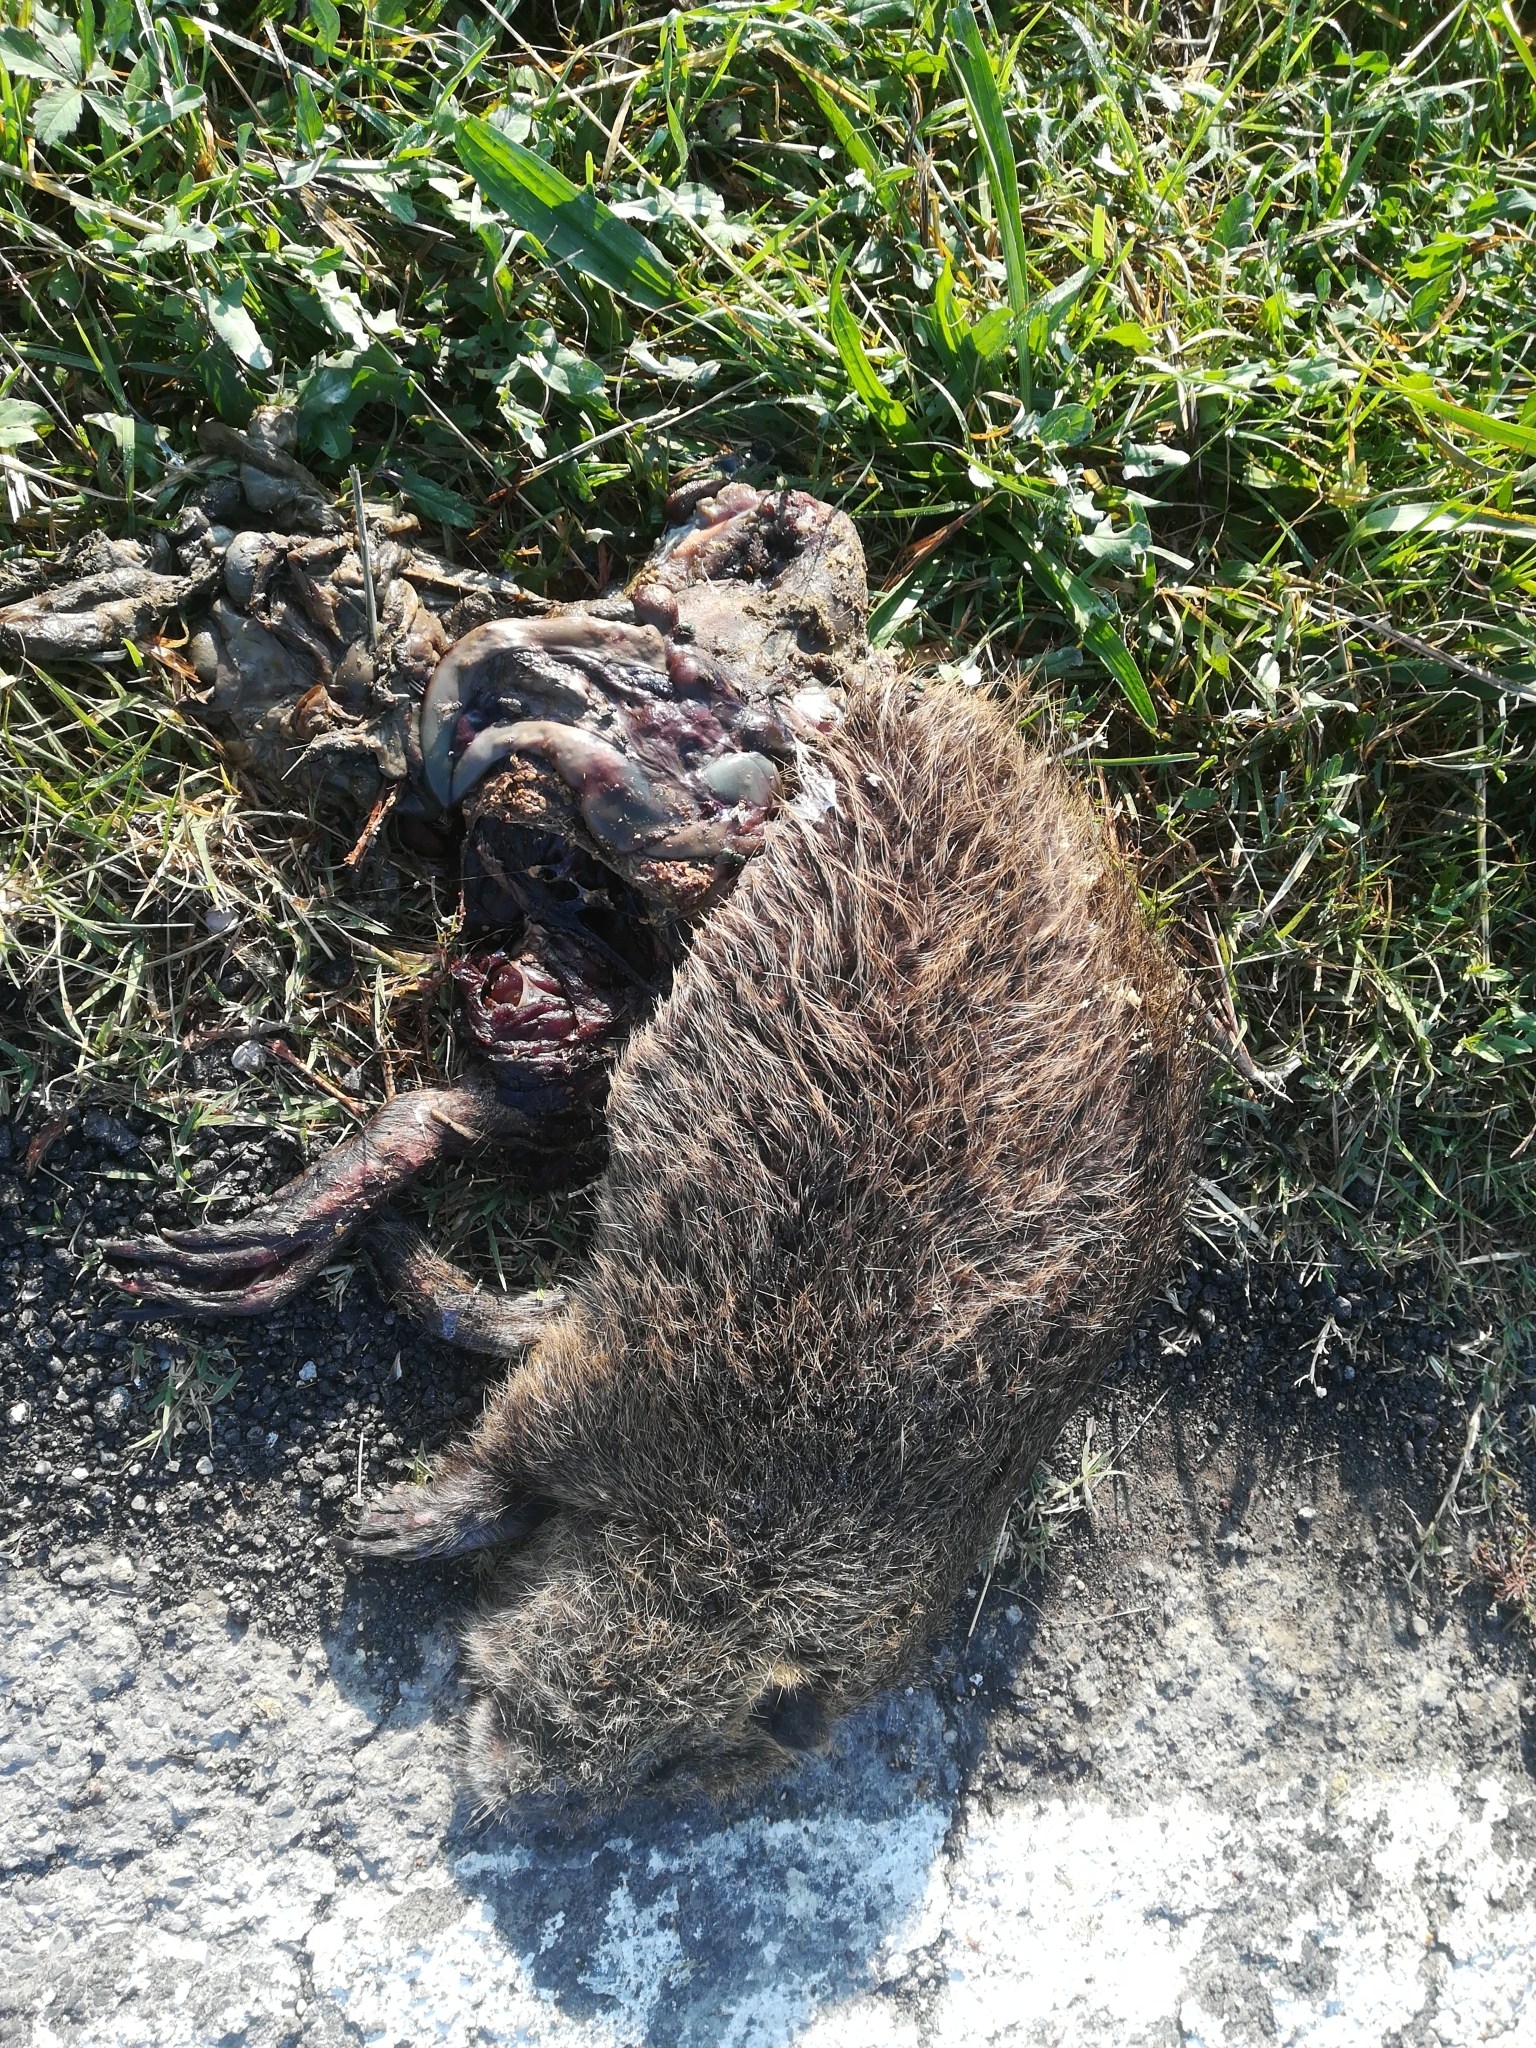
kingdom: Animalia
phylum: Chordata
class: Mammalia
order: Rodentia
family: Myocastoridae
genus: Myocastor
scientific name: Myocastor coypus
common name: Coypu
